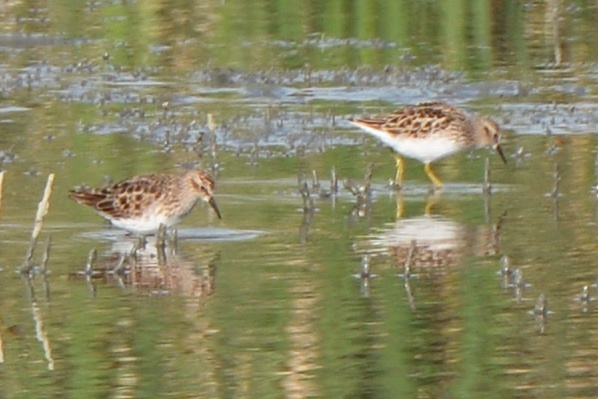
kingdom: Animalia
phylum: Chordata
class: Aves
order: Charadriiformes
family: Scolopacidae
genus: Calidris
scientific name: Calidris minutilla
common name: Least sandpiper
